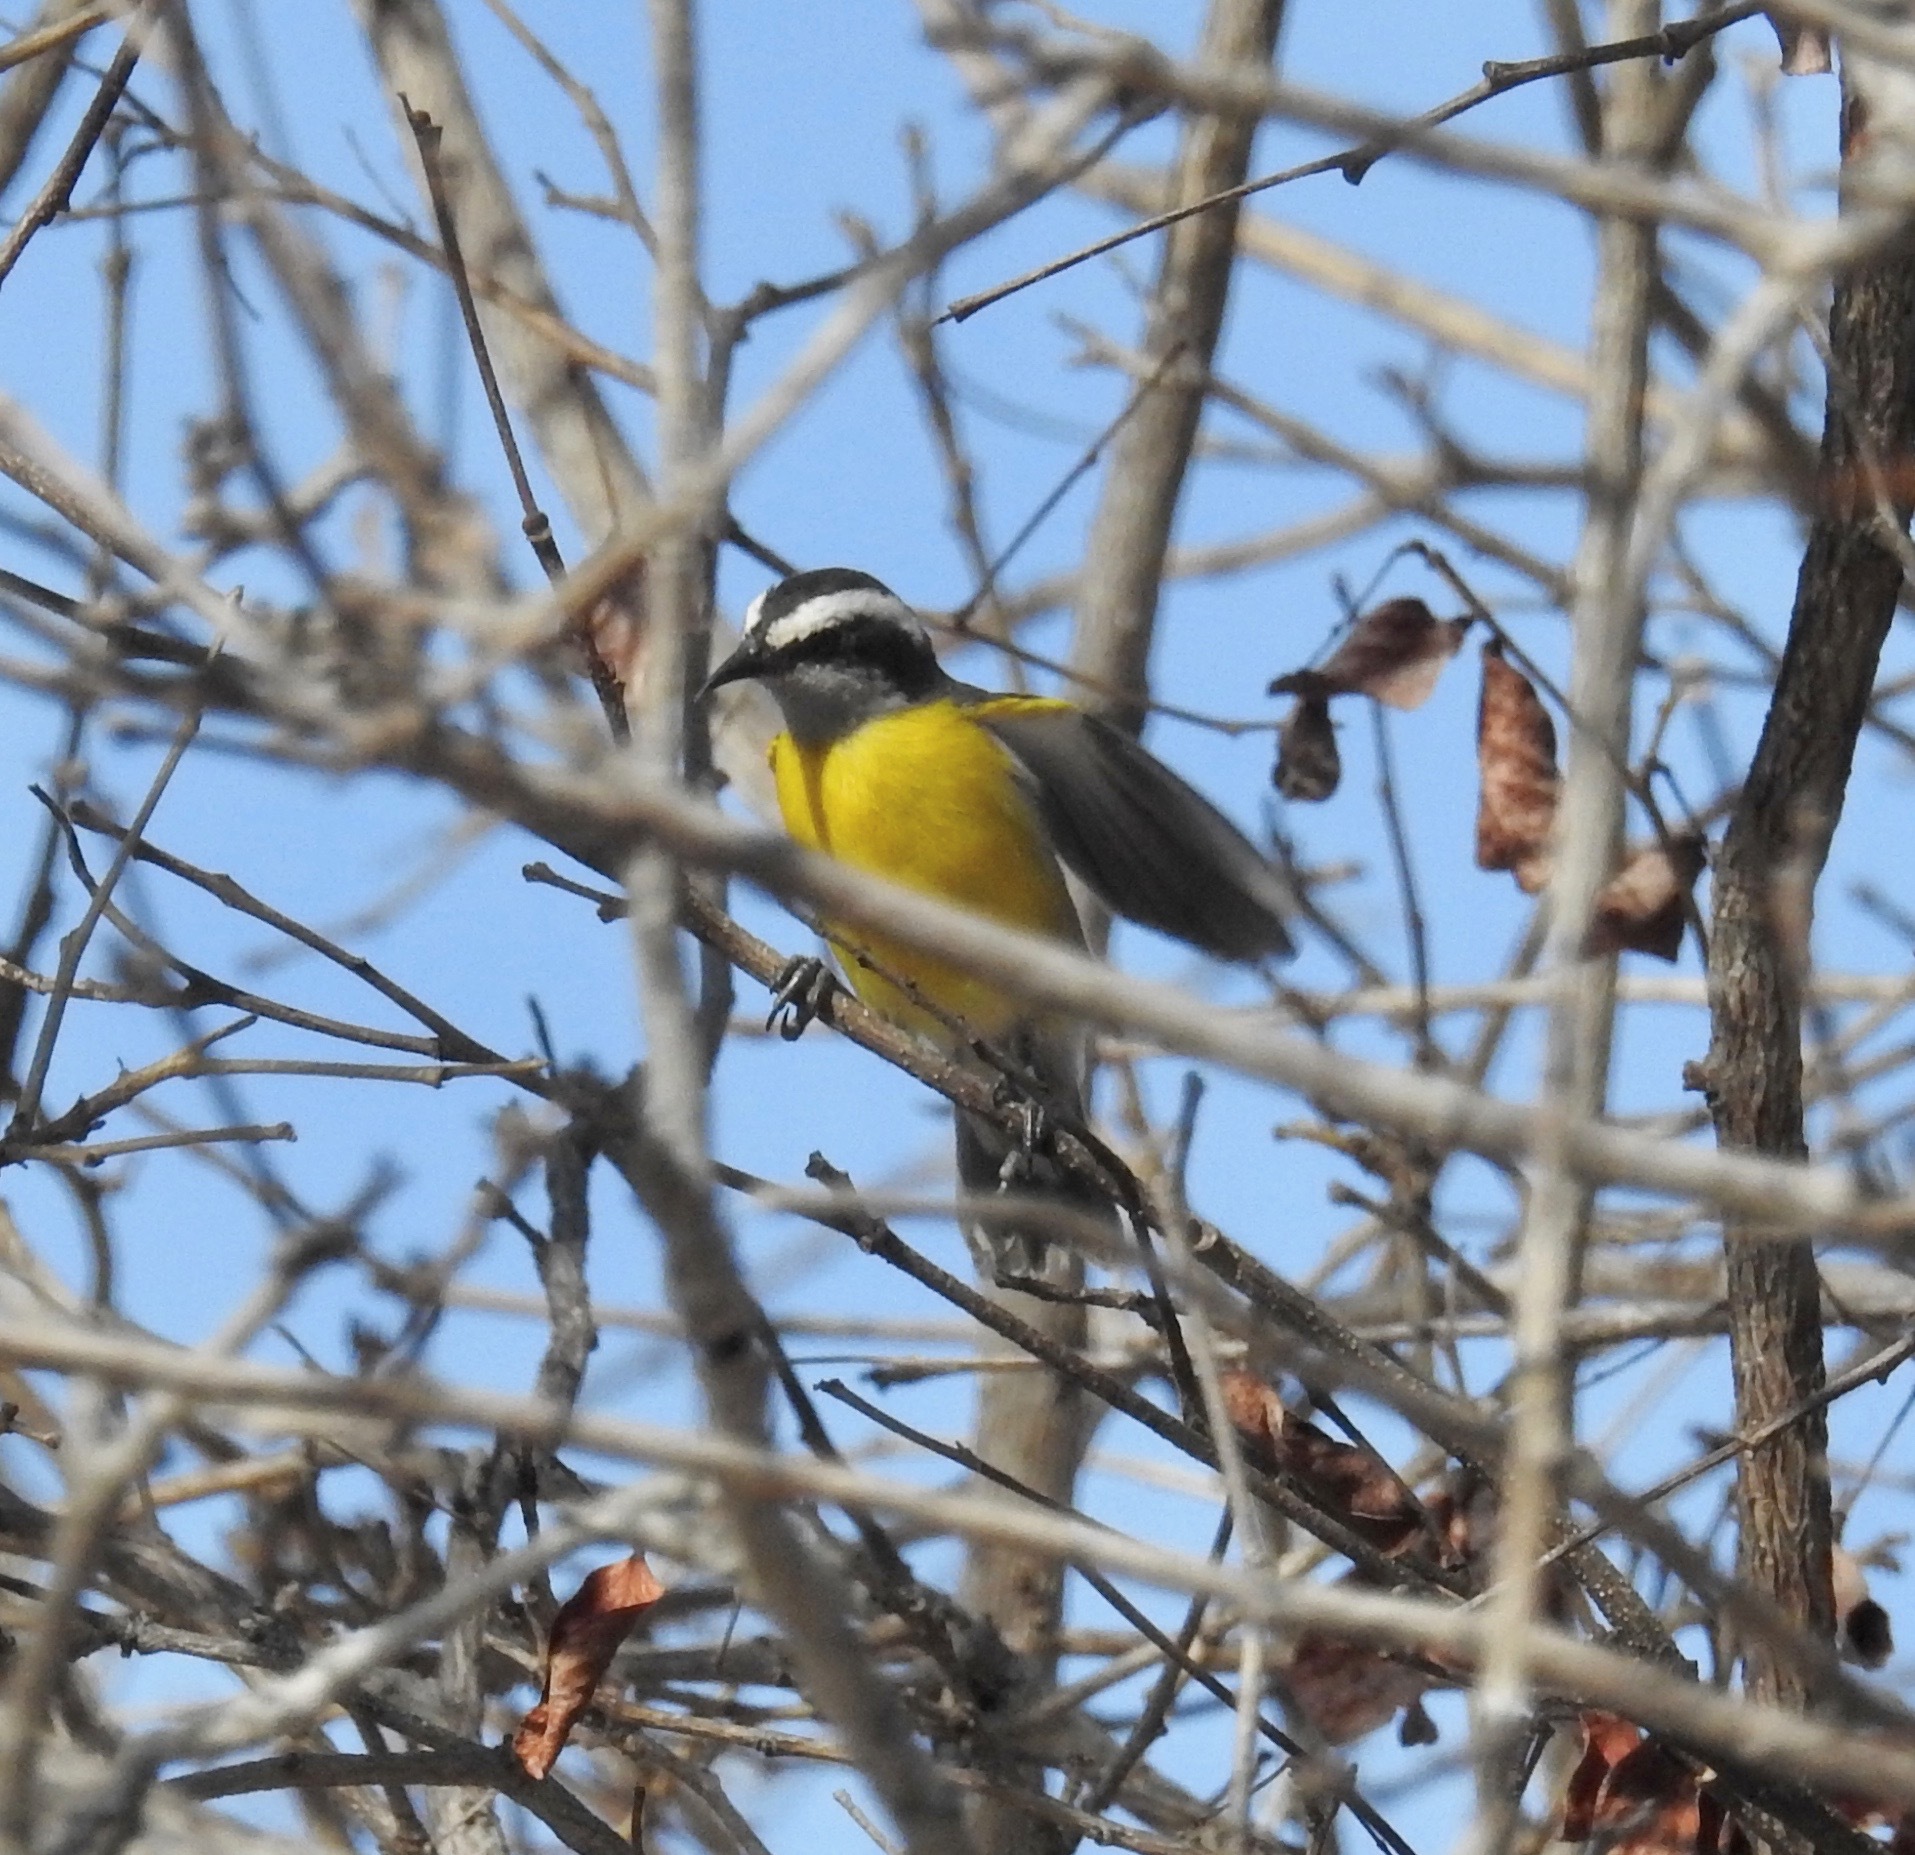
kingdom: Animalia
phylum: Chordata
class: Aves
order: Passeriformes
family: Thraupidae
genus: Coereba
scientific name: Coereba flaveola
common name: Bananaquit
